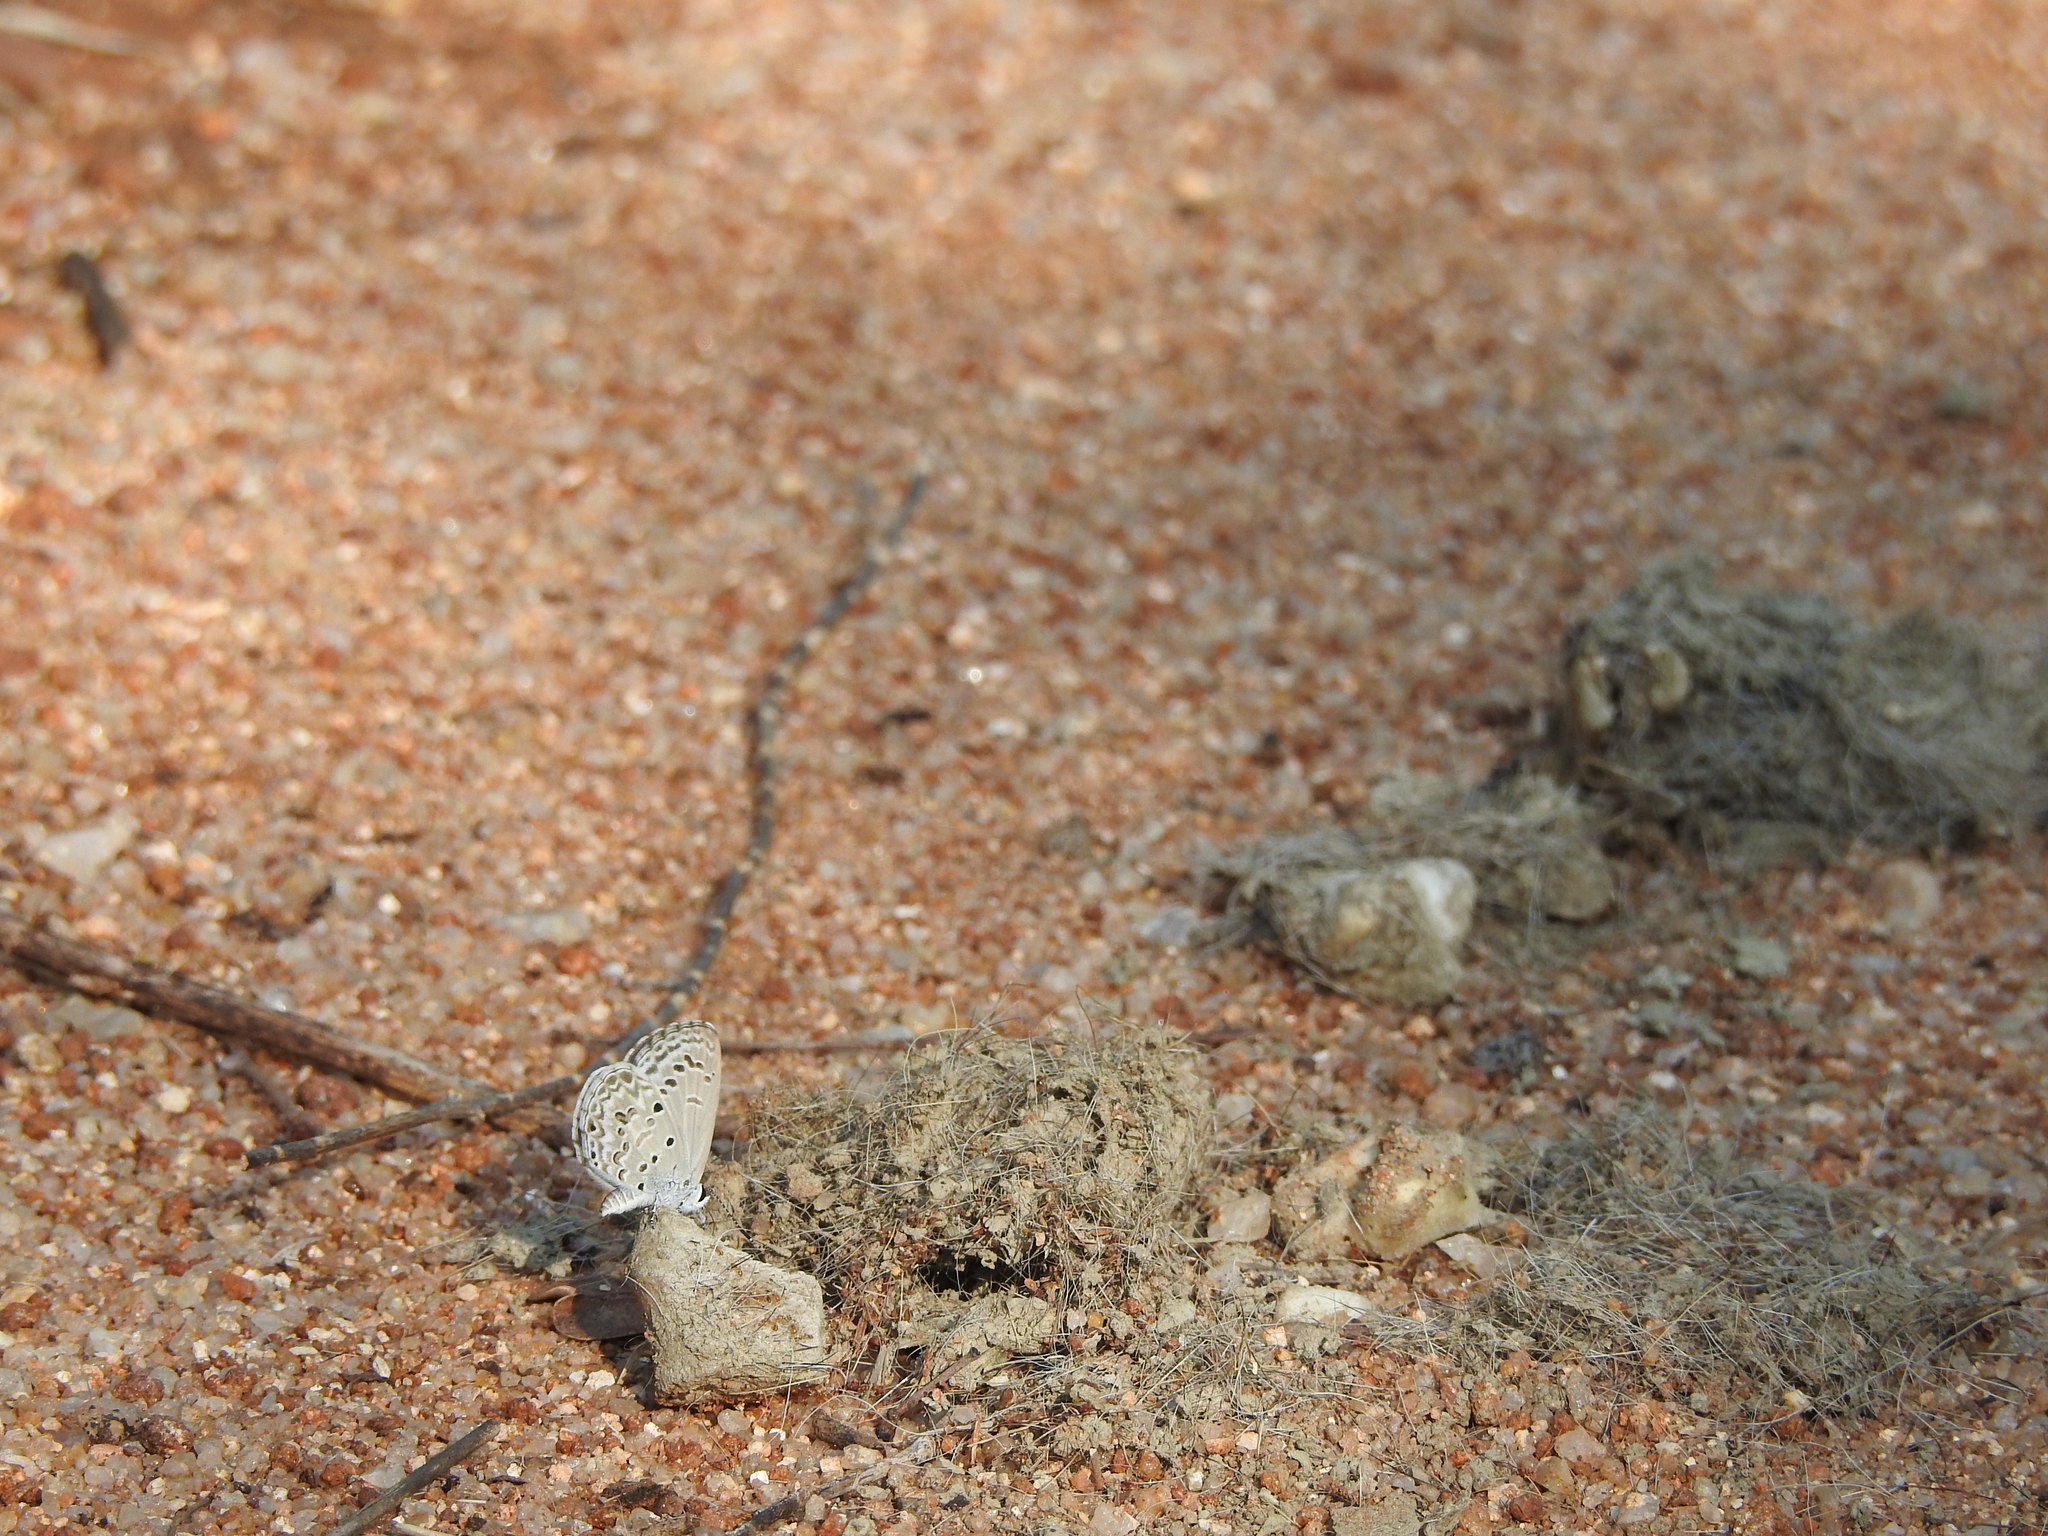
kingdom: Animalia
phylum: Arthropoda
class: Insecta
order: Lepidoptera
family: Lycaenidae
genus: Chilades
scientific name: Chilades laius
